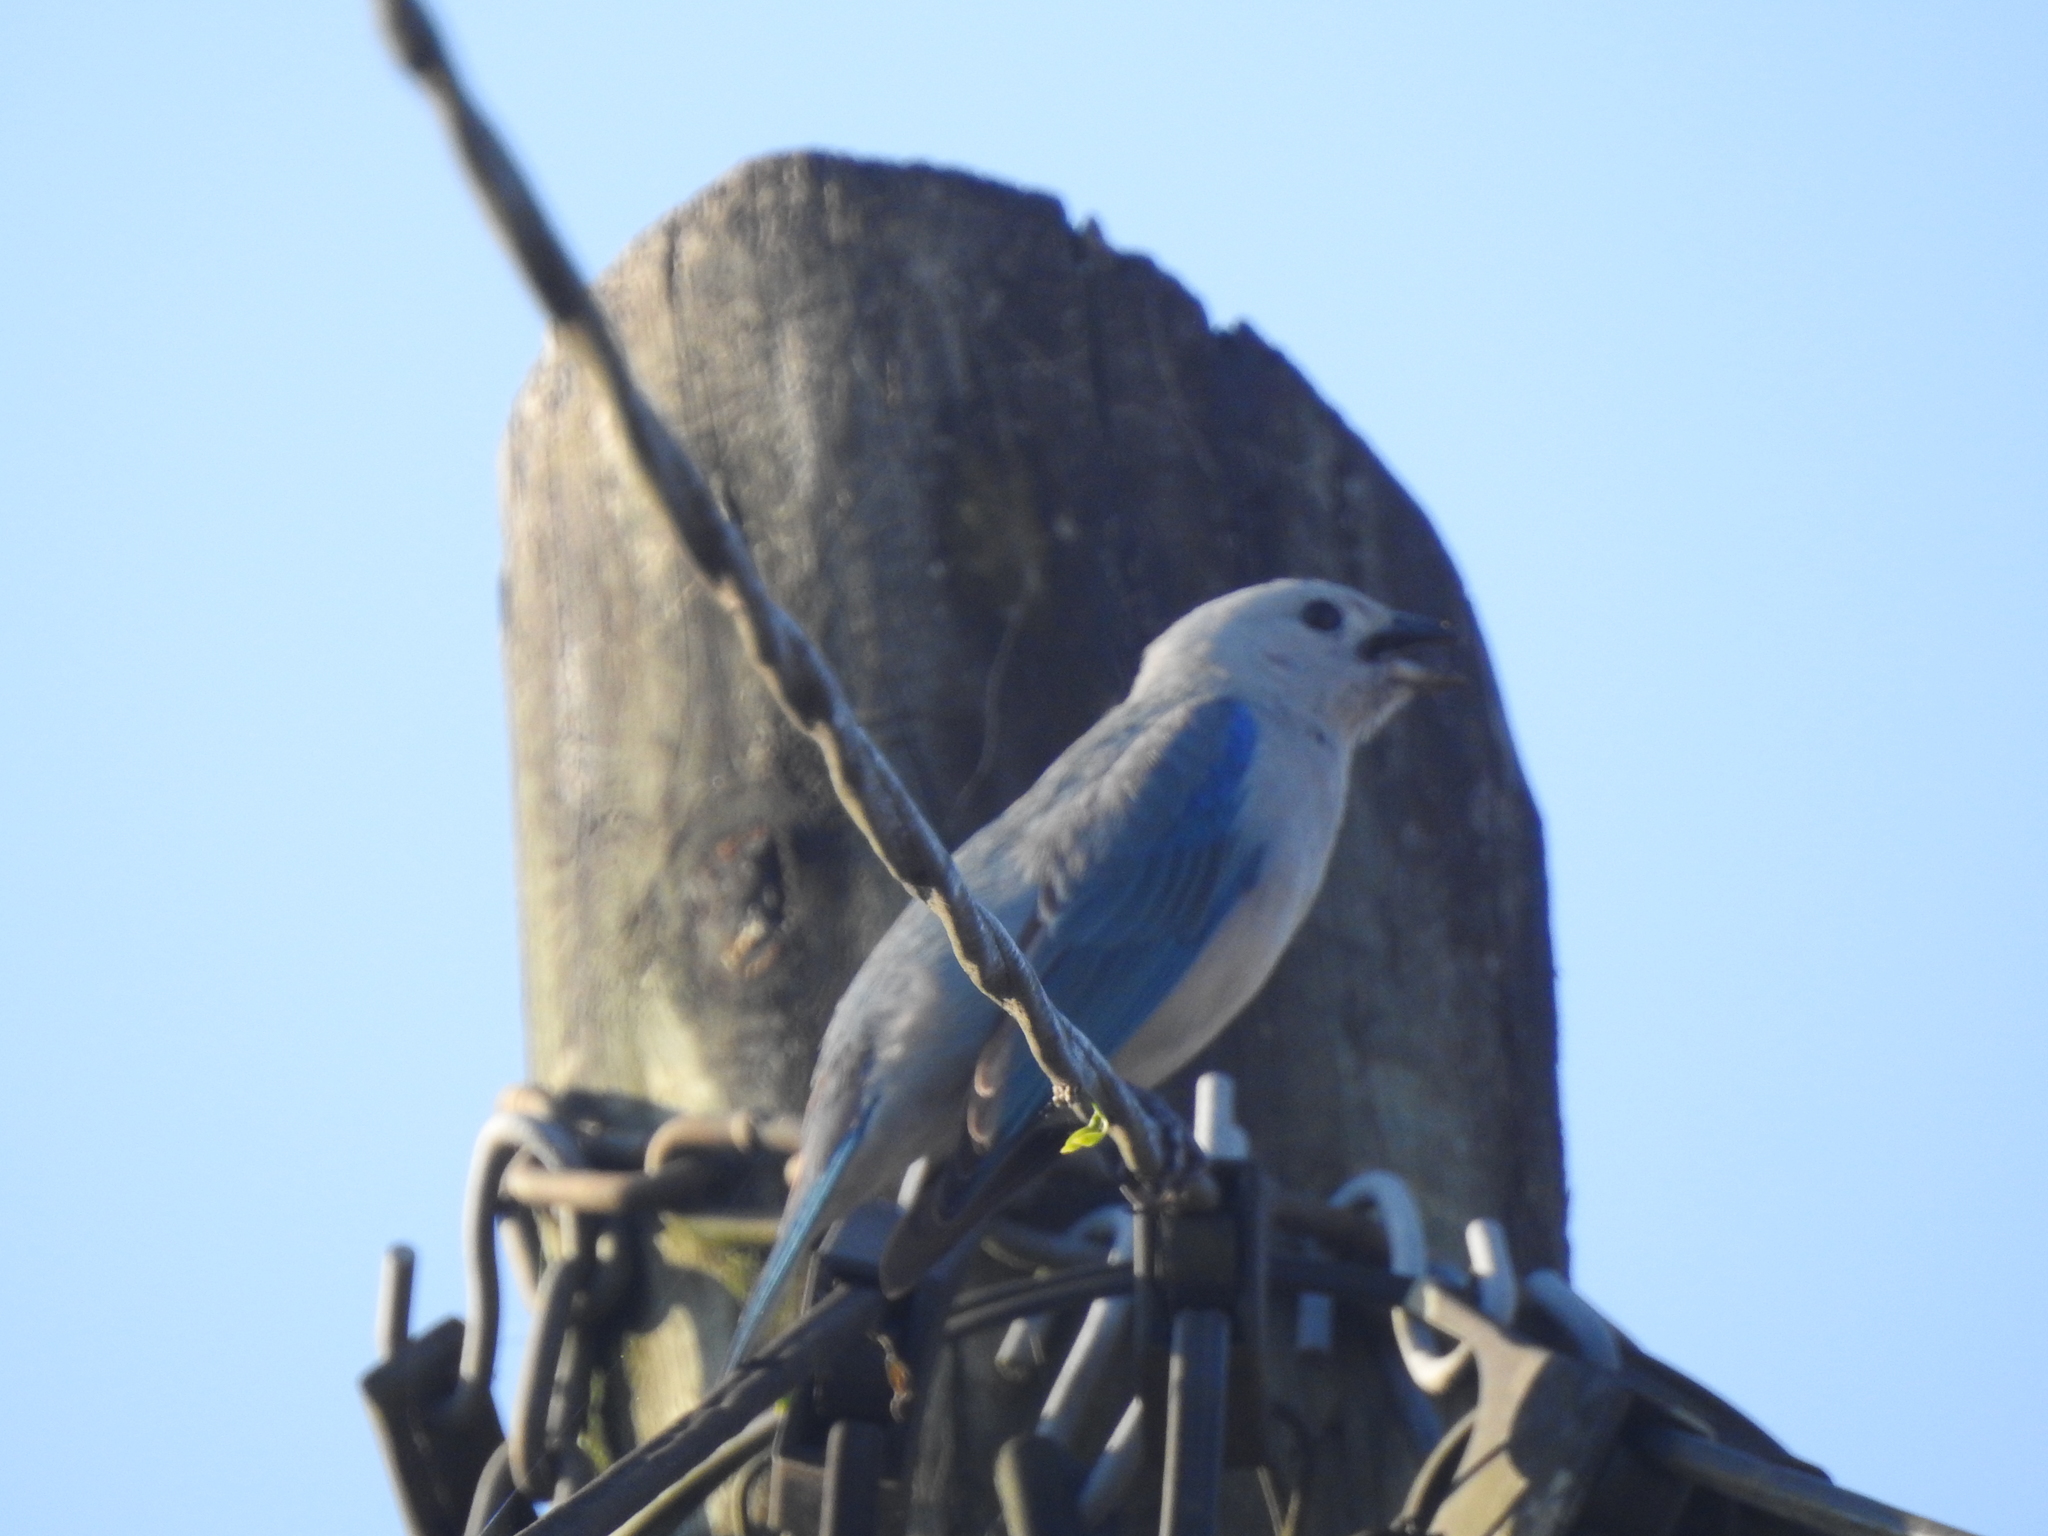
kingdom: Animalia
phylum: Chordata
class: Aves
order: Passeriformes
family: Thraupidae
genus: Thraupis
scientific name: Thraupis episcopus
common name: Blue-grey tanager
